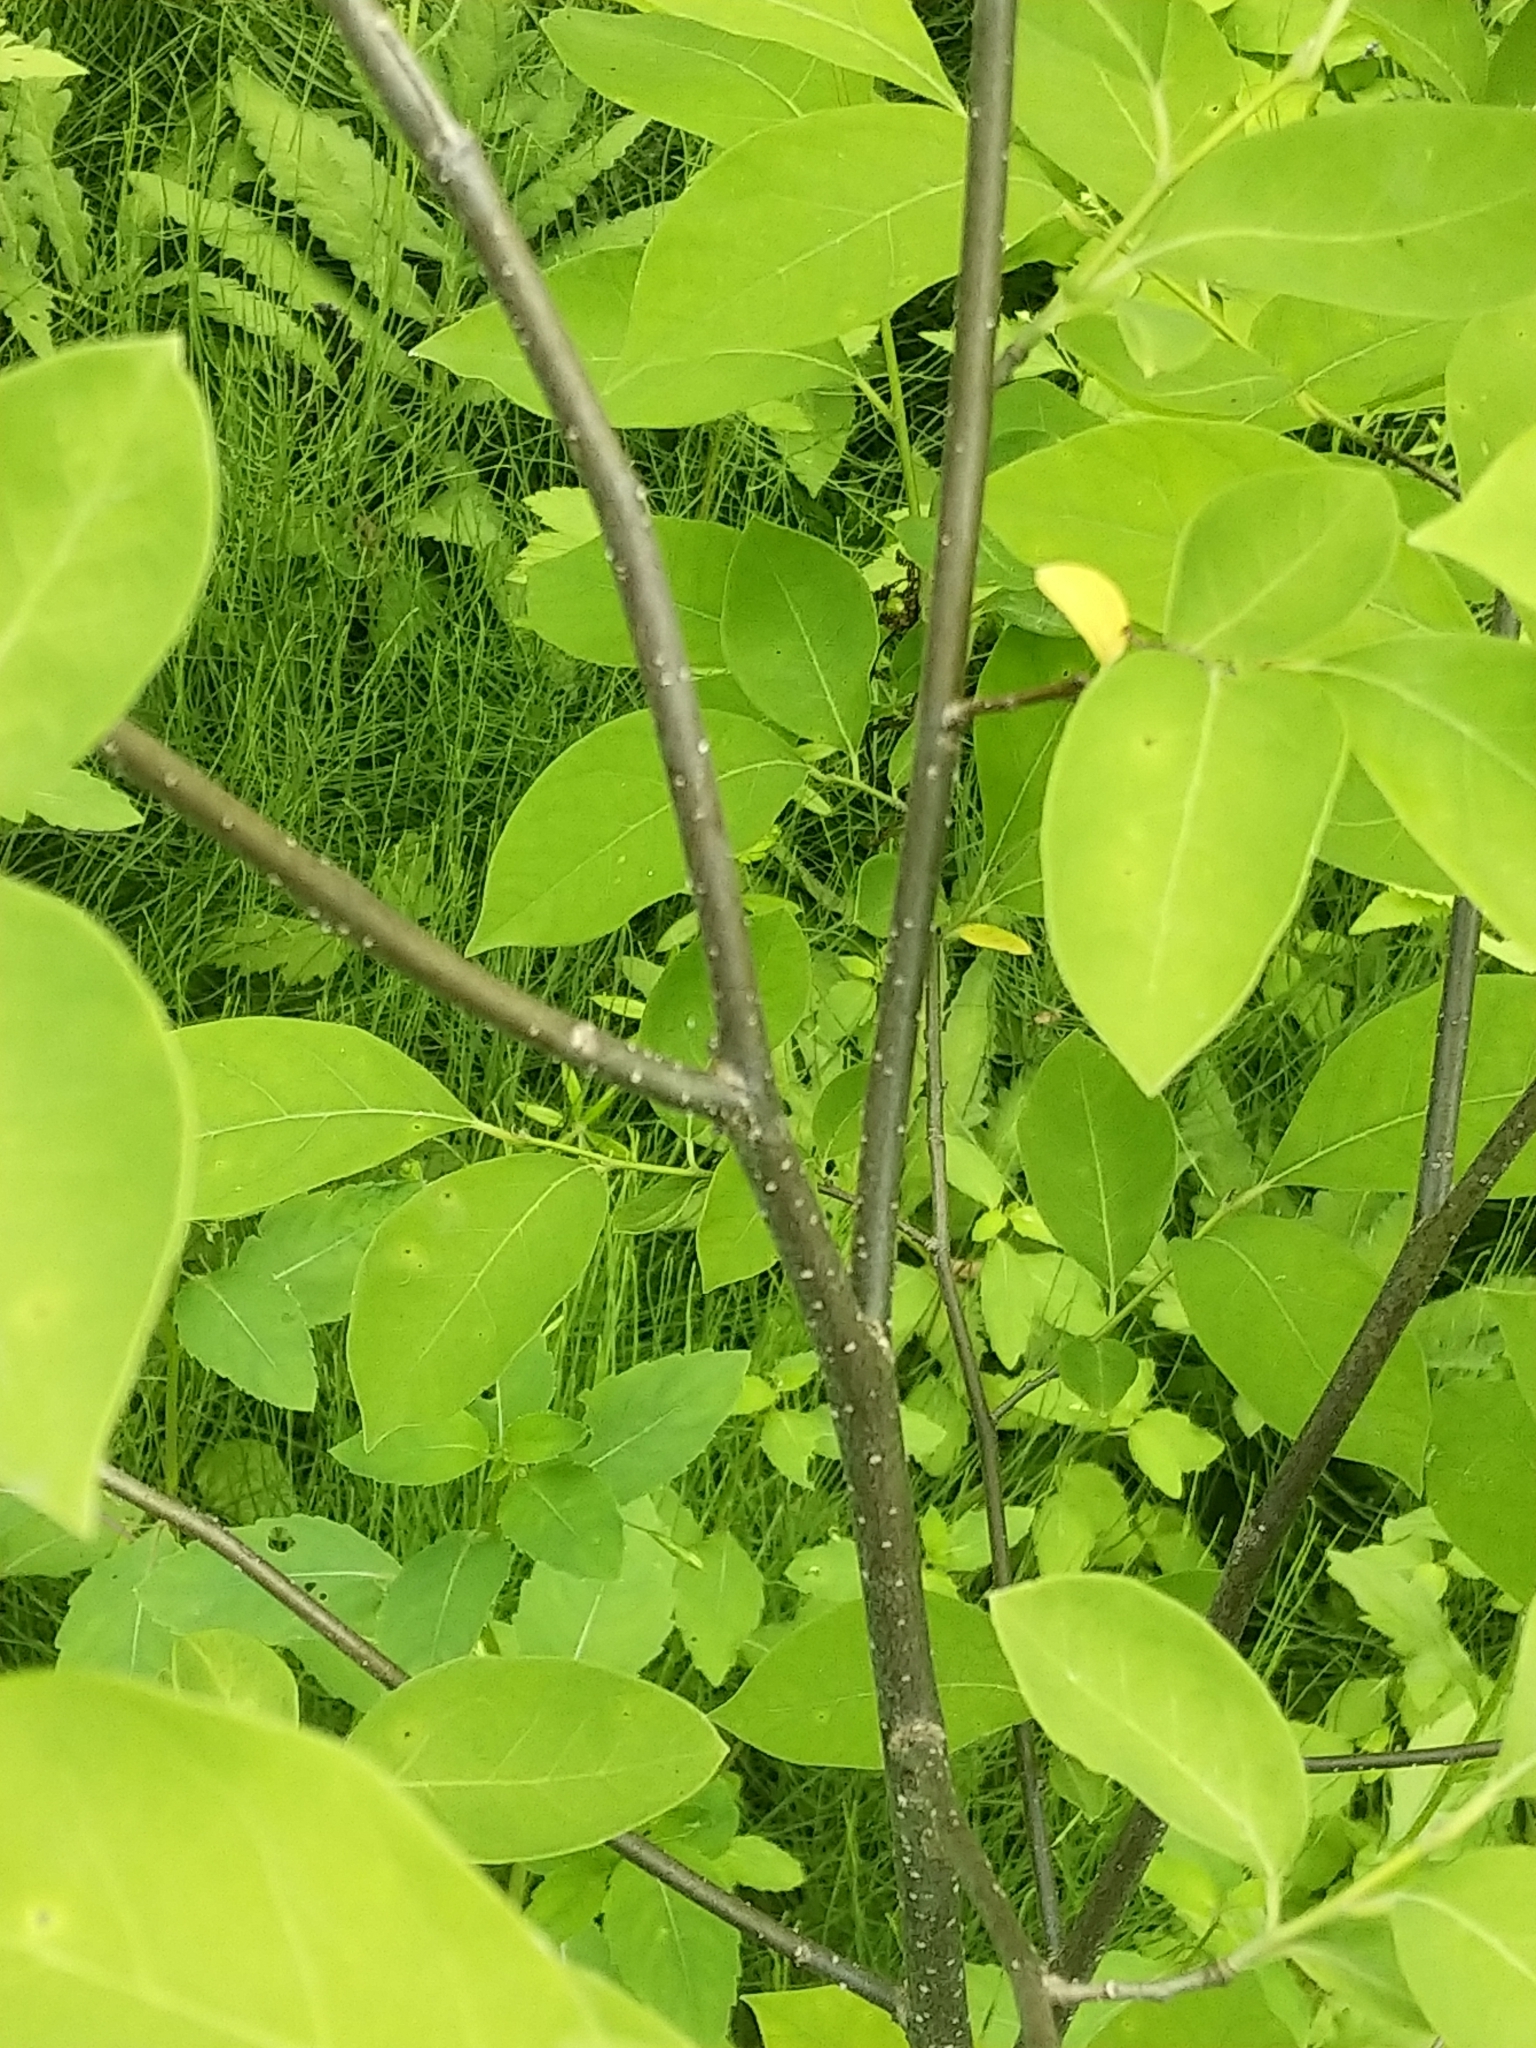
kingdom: Plantae
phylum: Tracheophyta
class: Magnoliopsida
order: Laurales
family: Lauraceae
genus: Lindera
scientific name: Lindera benzoin
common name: Spicebush
